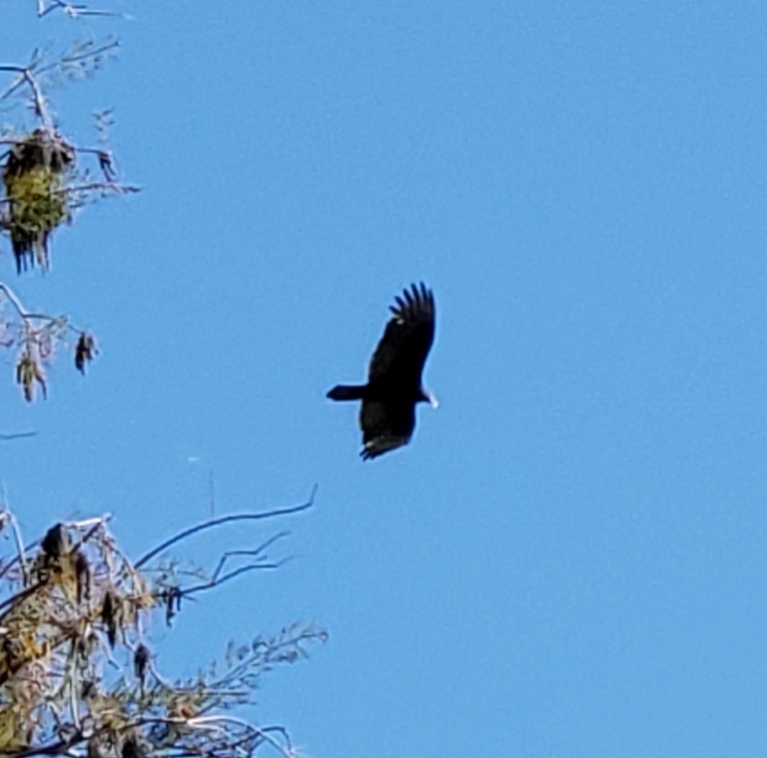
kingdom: Animalia
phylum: Chordata
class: Aves
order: Accipitriformes
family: Cathartidae
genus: Cathartes
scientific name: Cathartes aura
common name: Turkey vulture
